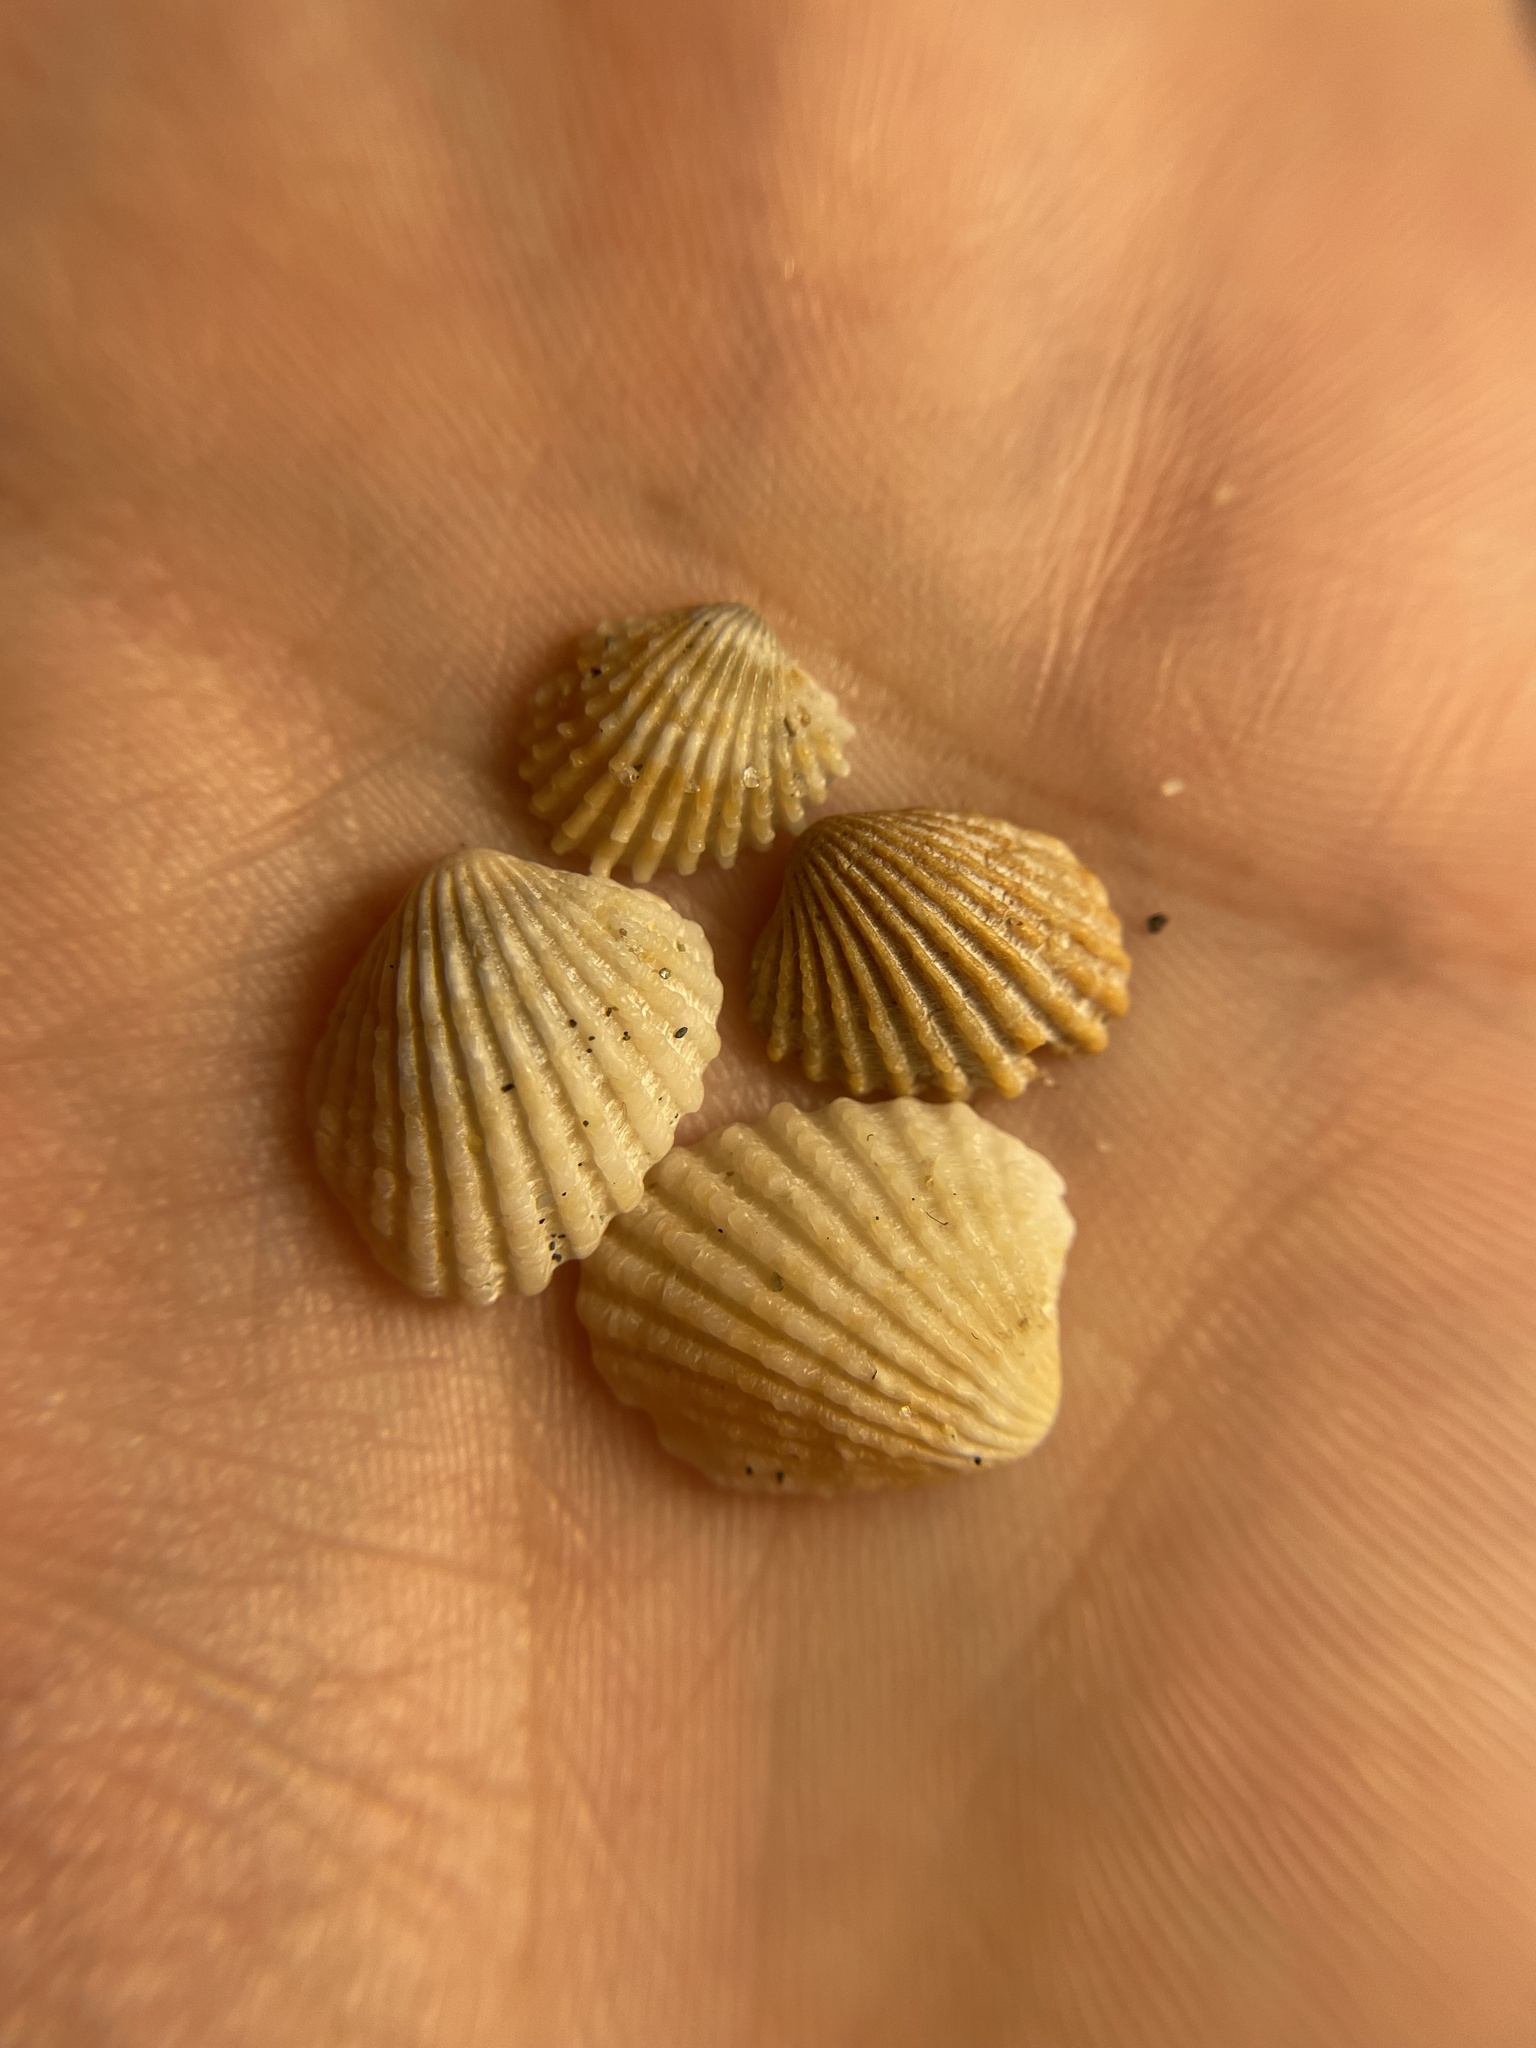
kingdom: Animalia
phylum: Mollusca
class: Bivalvia
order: Carditida
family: Carditidae
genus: Glans
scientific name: Glans trapezia
